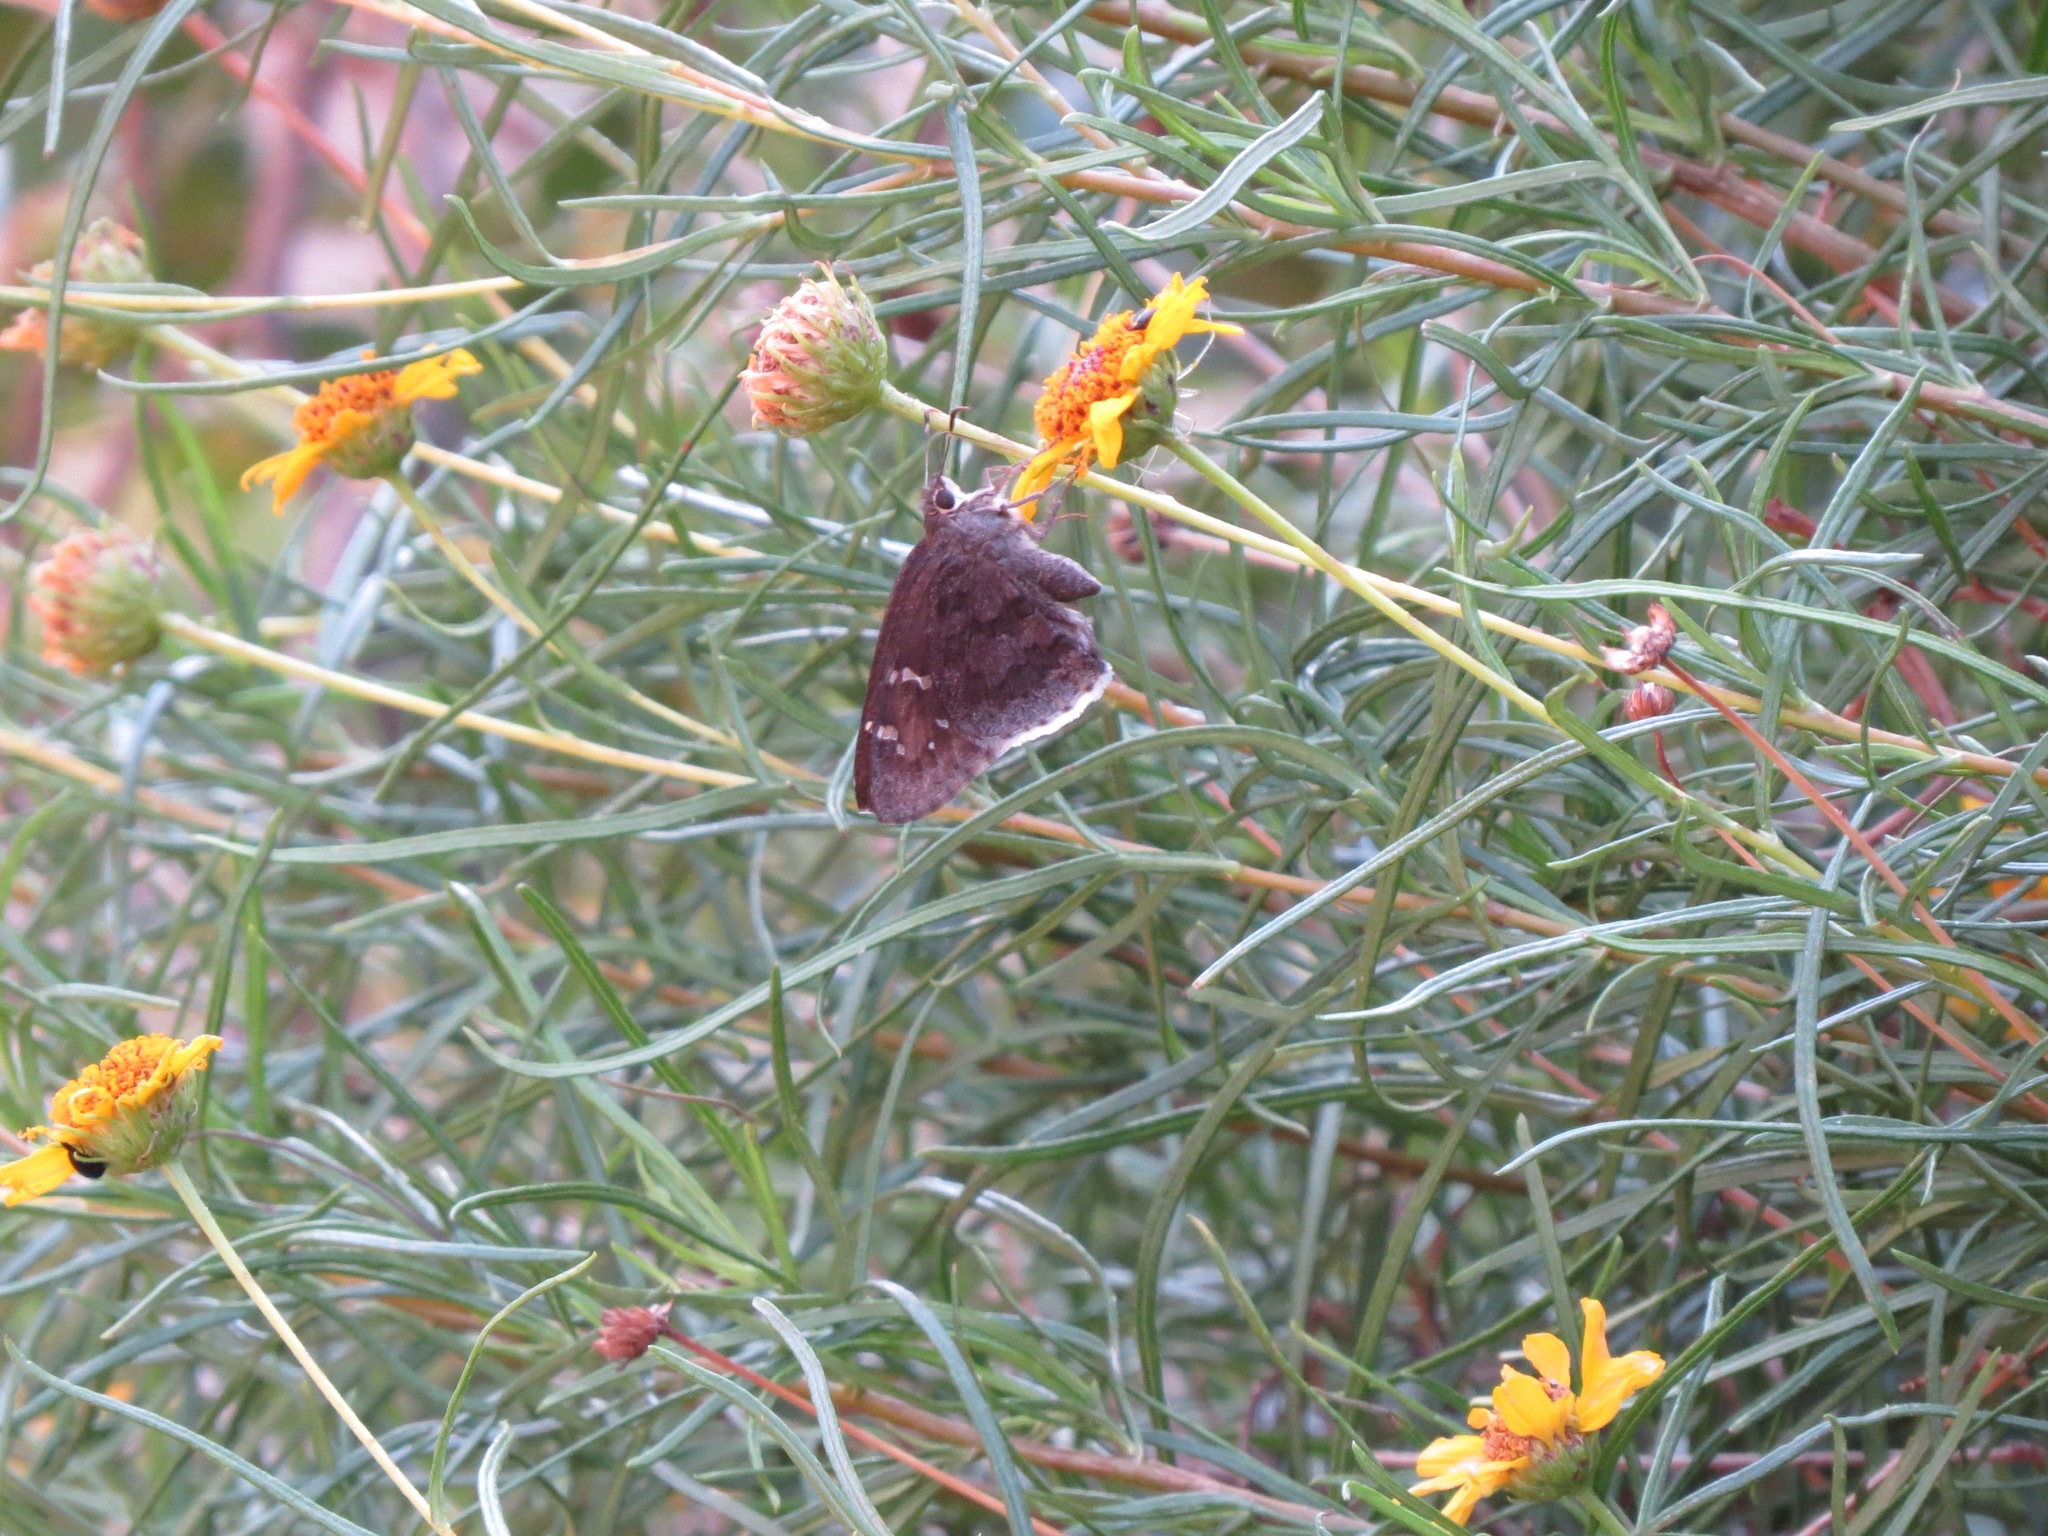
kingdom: Animalia
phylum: Arthropoda
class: Insecta
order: Lepidoptera
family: Hesperiidae
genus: Cogia
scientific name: Cogia hippalus
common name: Acacia skipper
